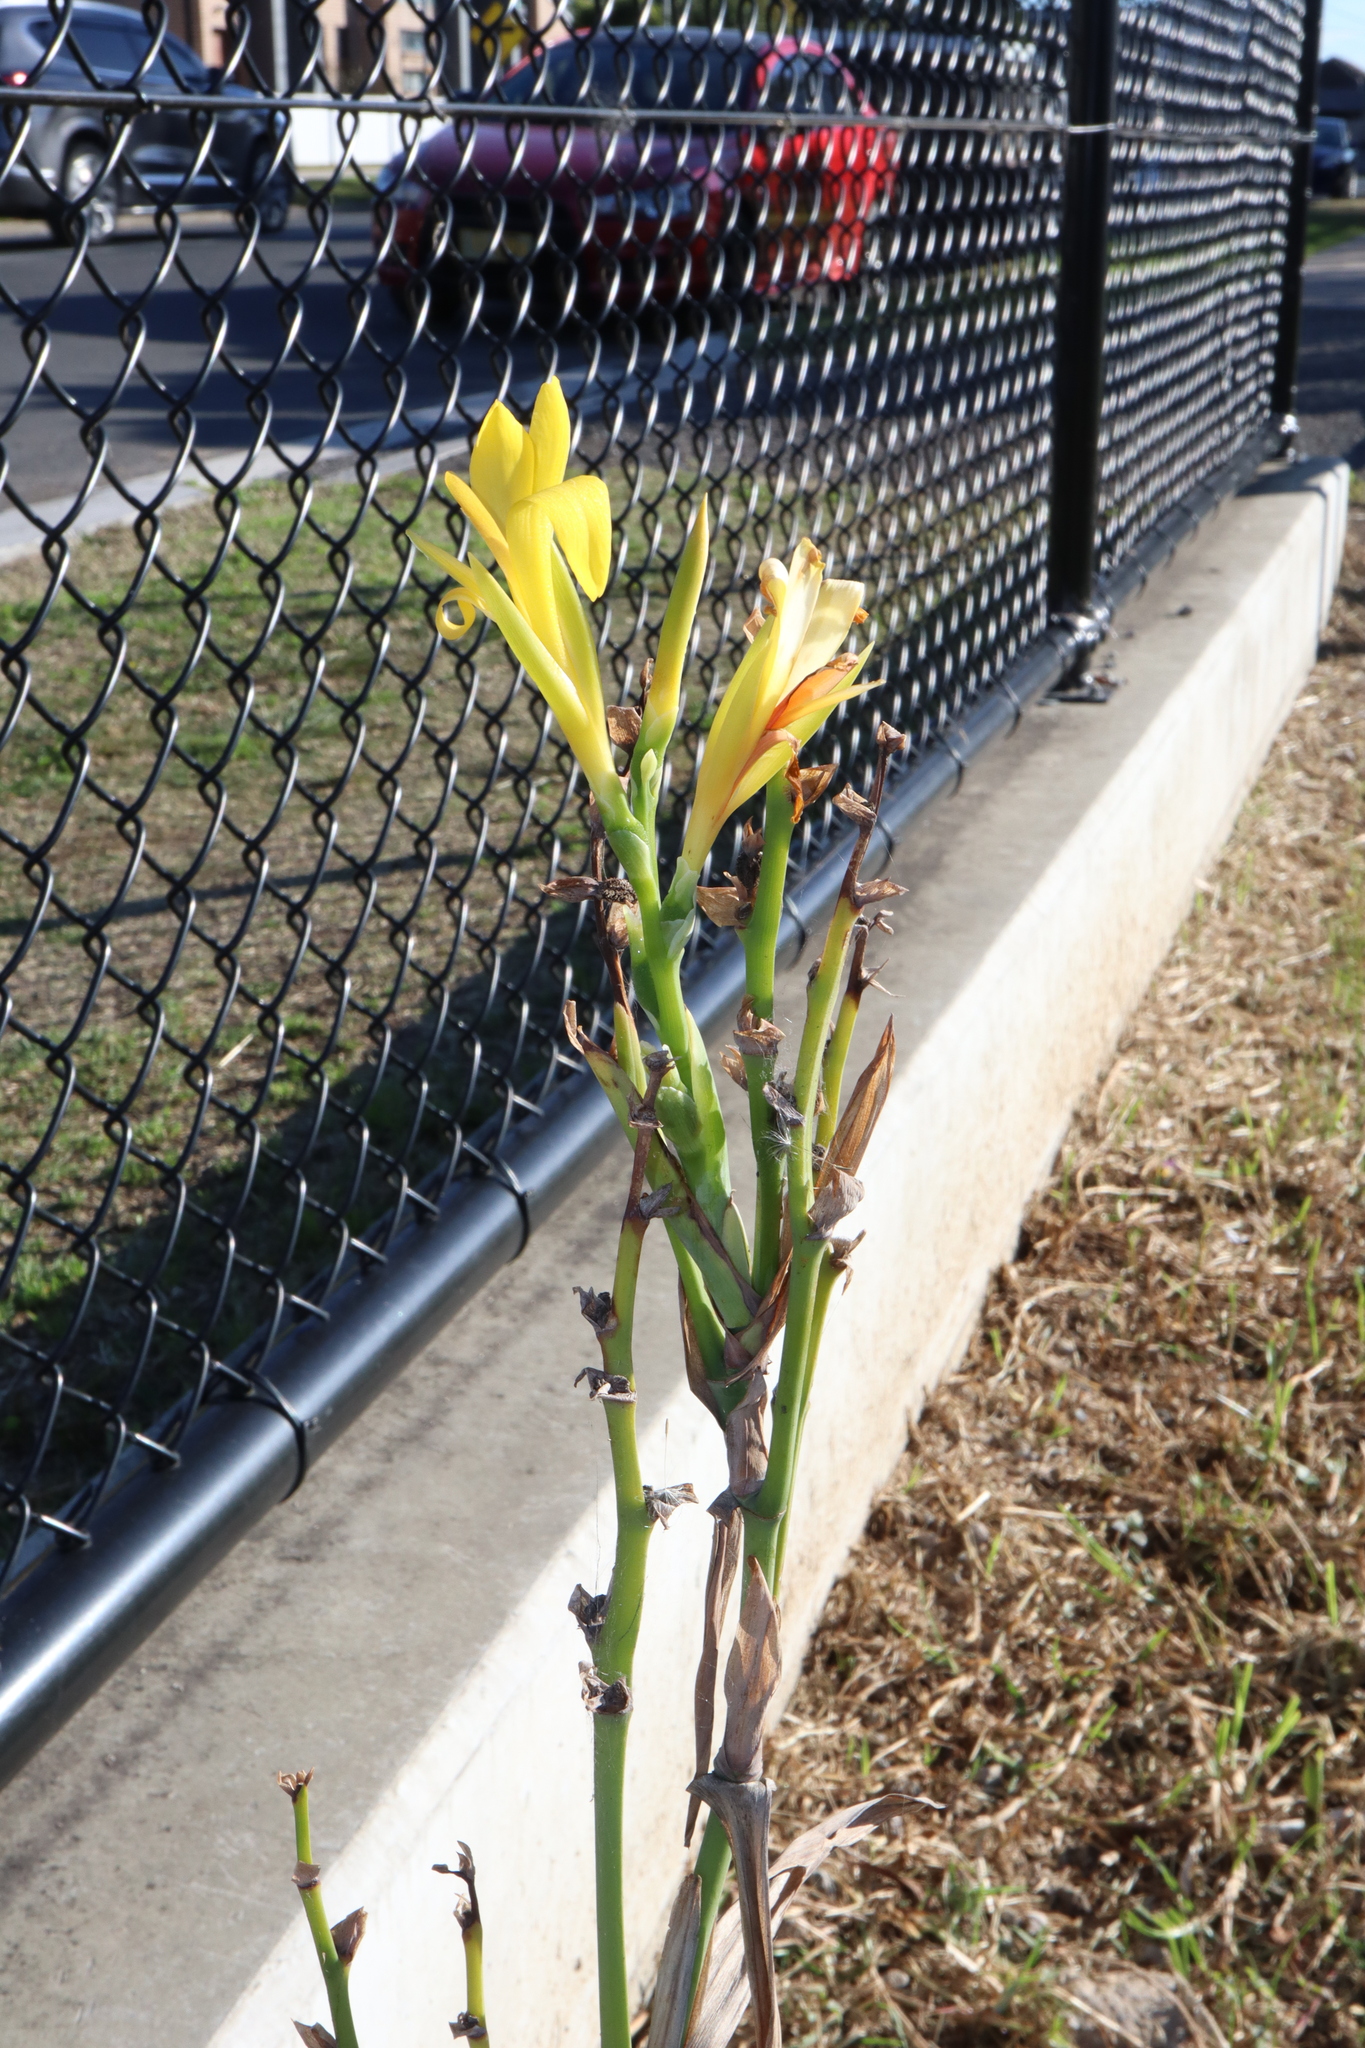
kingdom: Plantae
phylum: Tracheophyta
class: Liliopsida
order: Zingiberales
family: Cannaceae
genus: Canna
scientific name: Canna indica
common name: Indian shot
